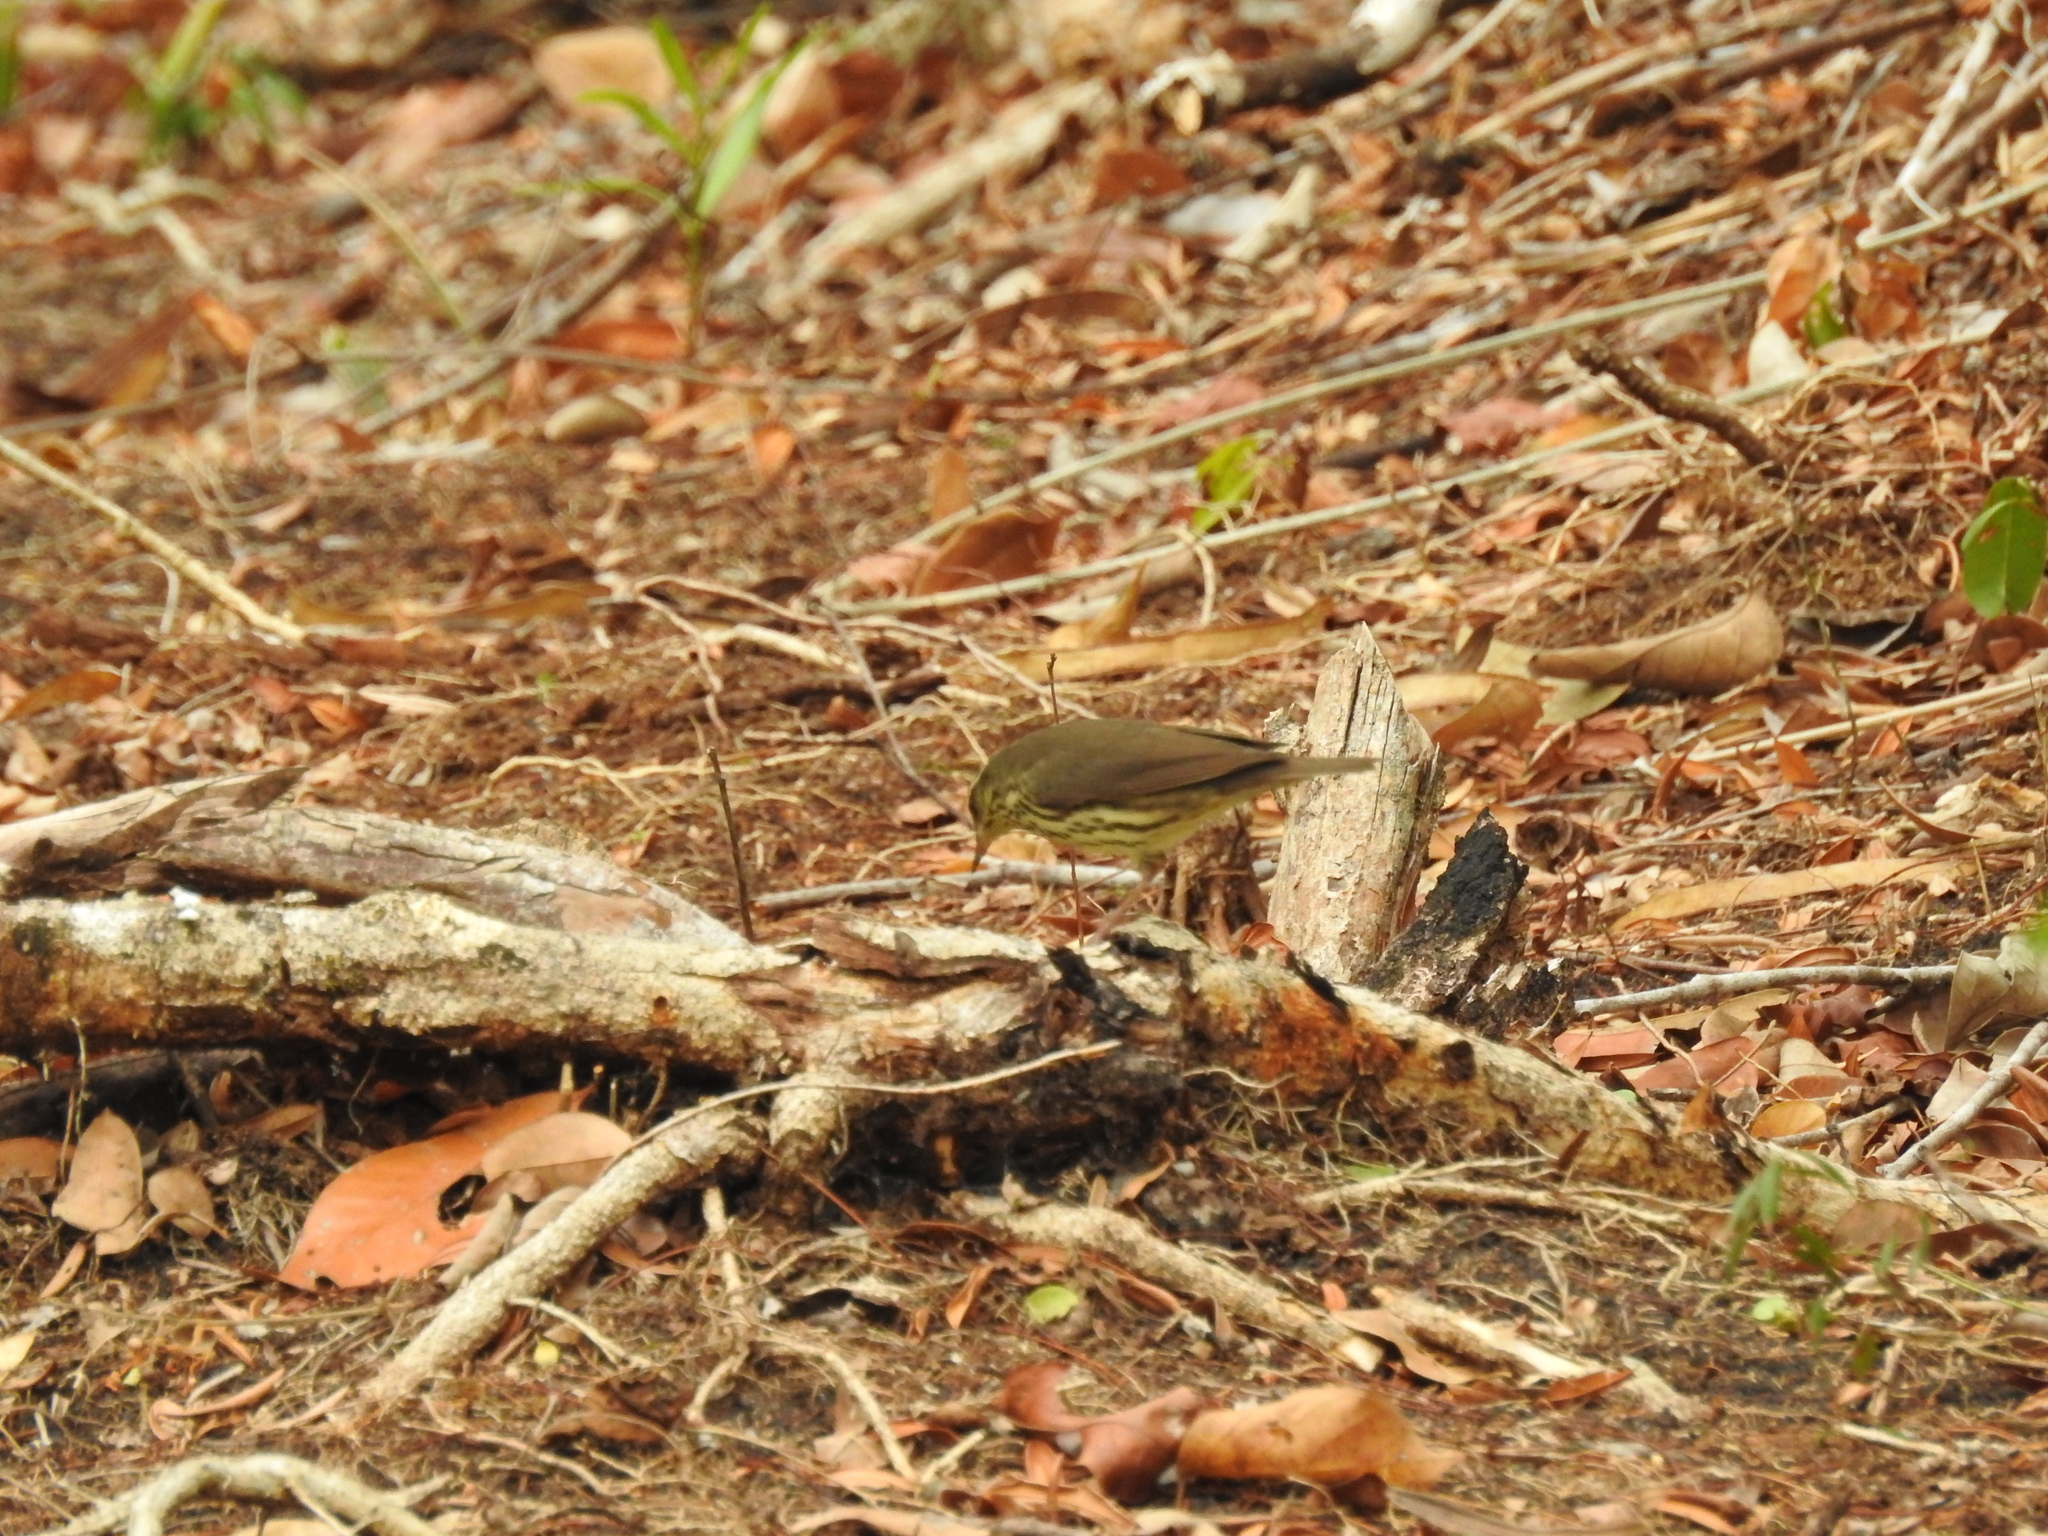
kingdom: Animalia
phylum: Chordata
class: Aves
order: Passeriformes
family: Parulidae
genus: Parkesia
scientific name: Parkesia noveboracensis
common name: Northern waterthrush
